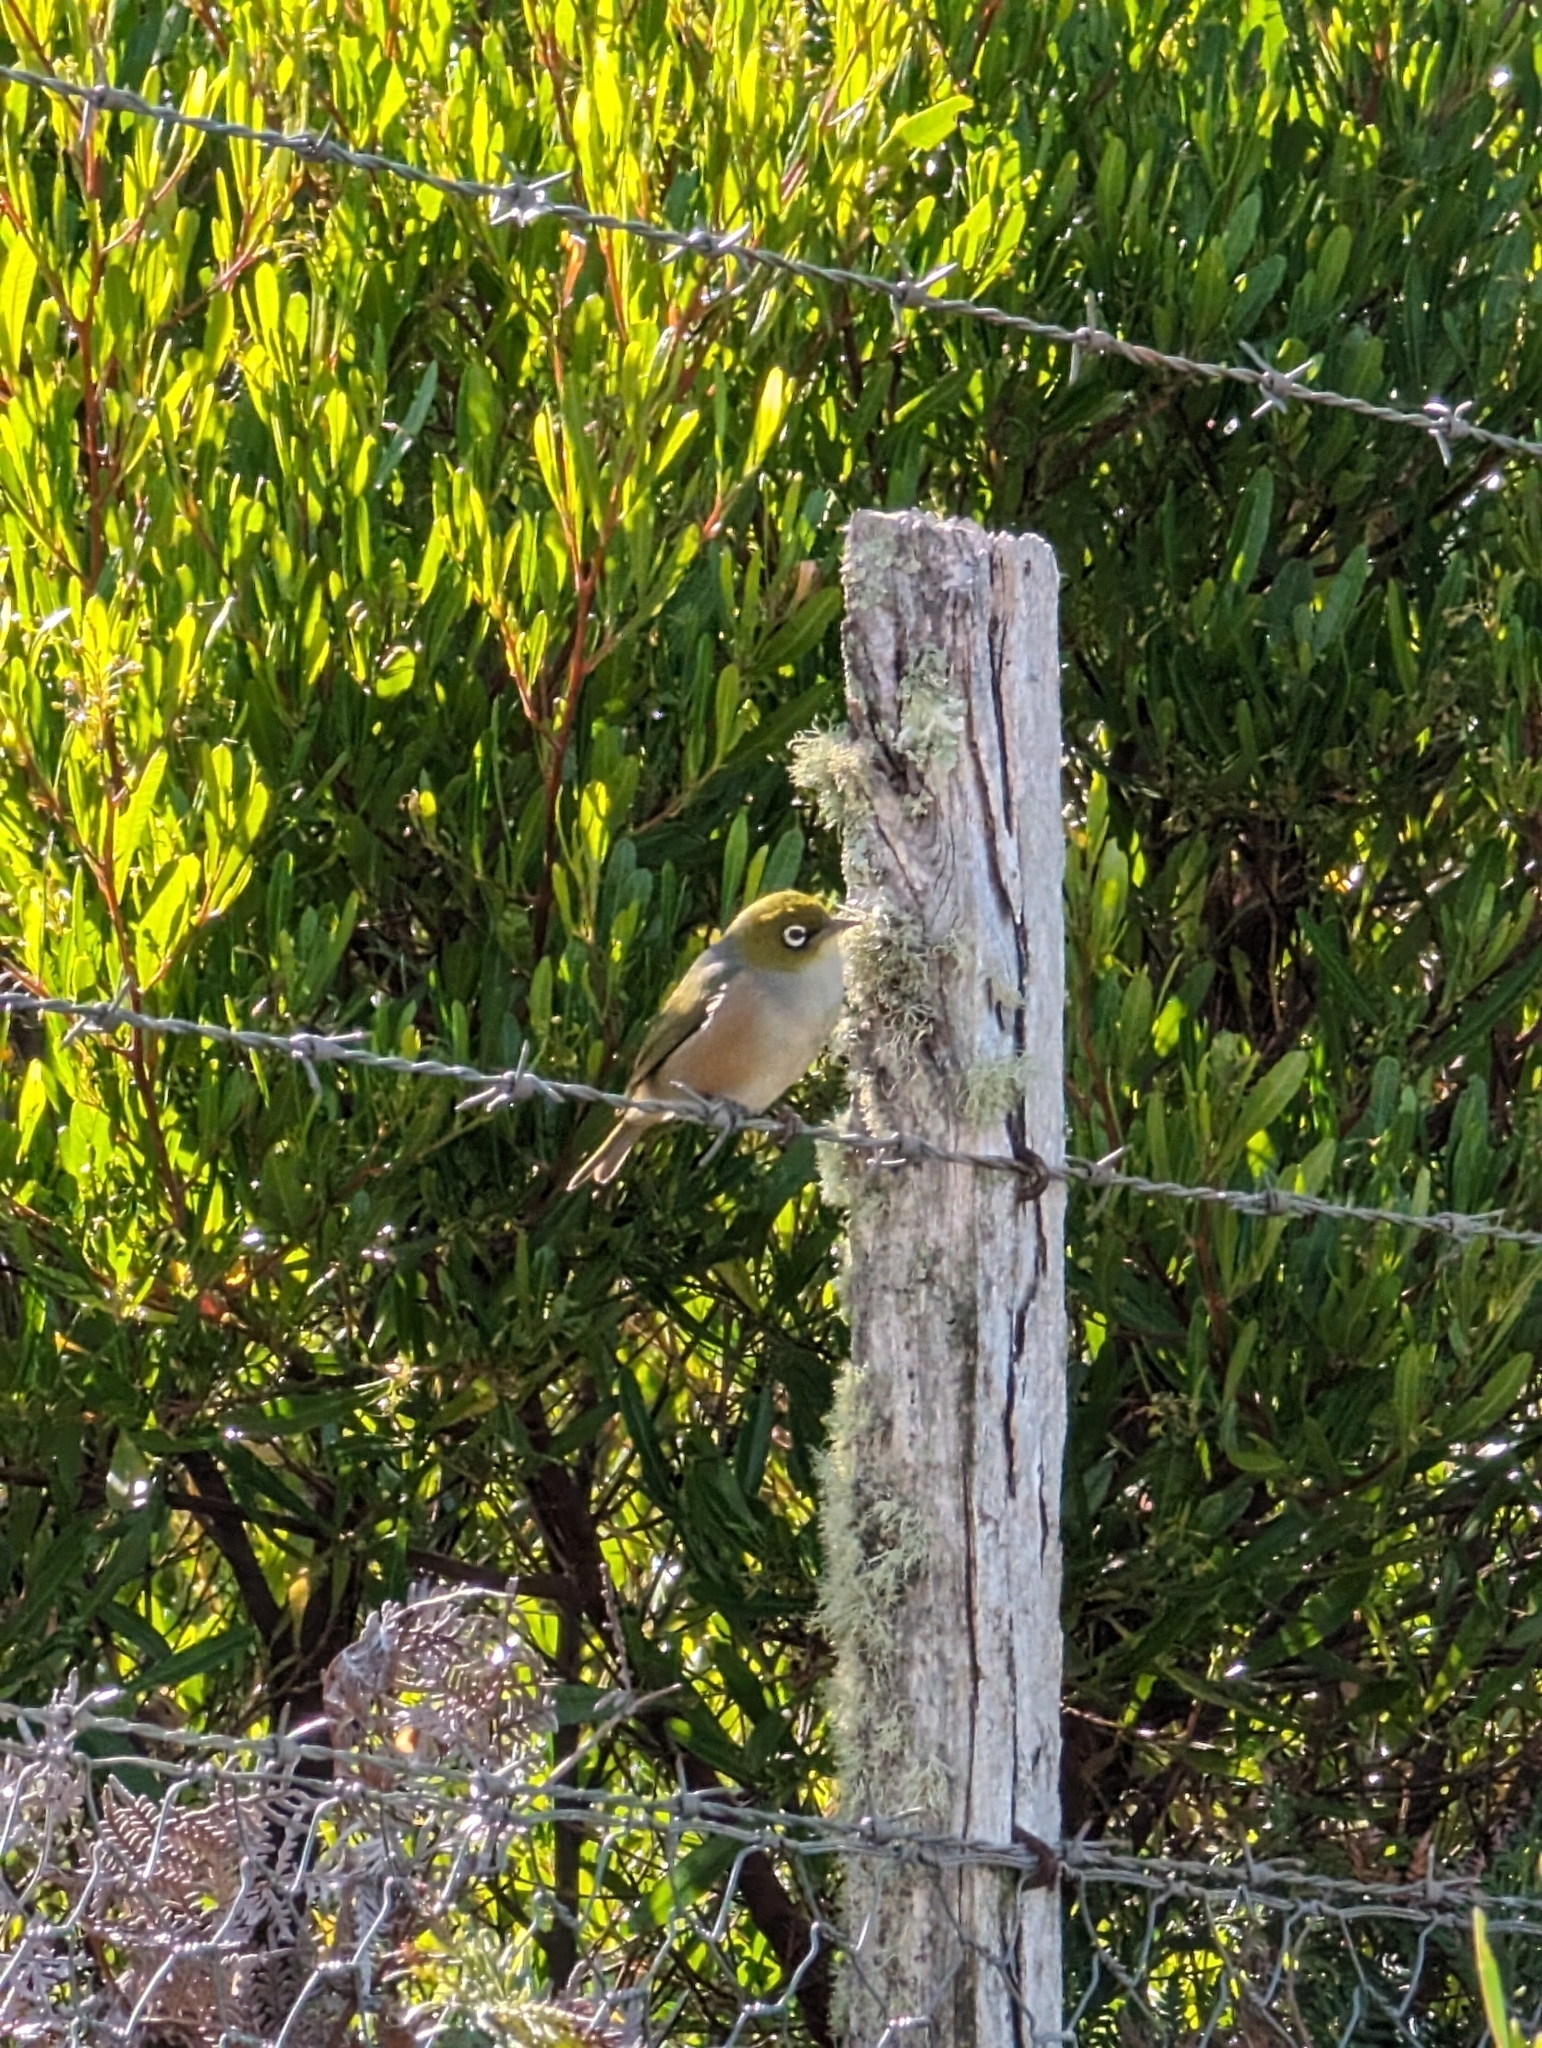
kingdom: Animalia
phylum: Chordata
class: Aves
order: Passeriformes
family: Zosteropidae
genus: Zosterops
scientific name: Zosterops lateralis
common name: Silvereye
